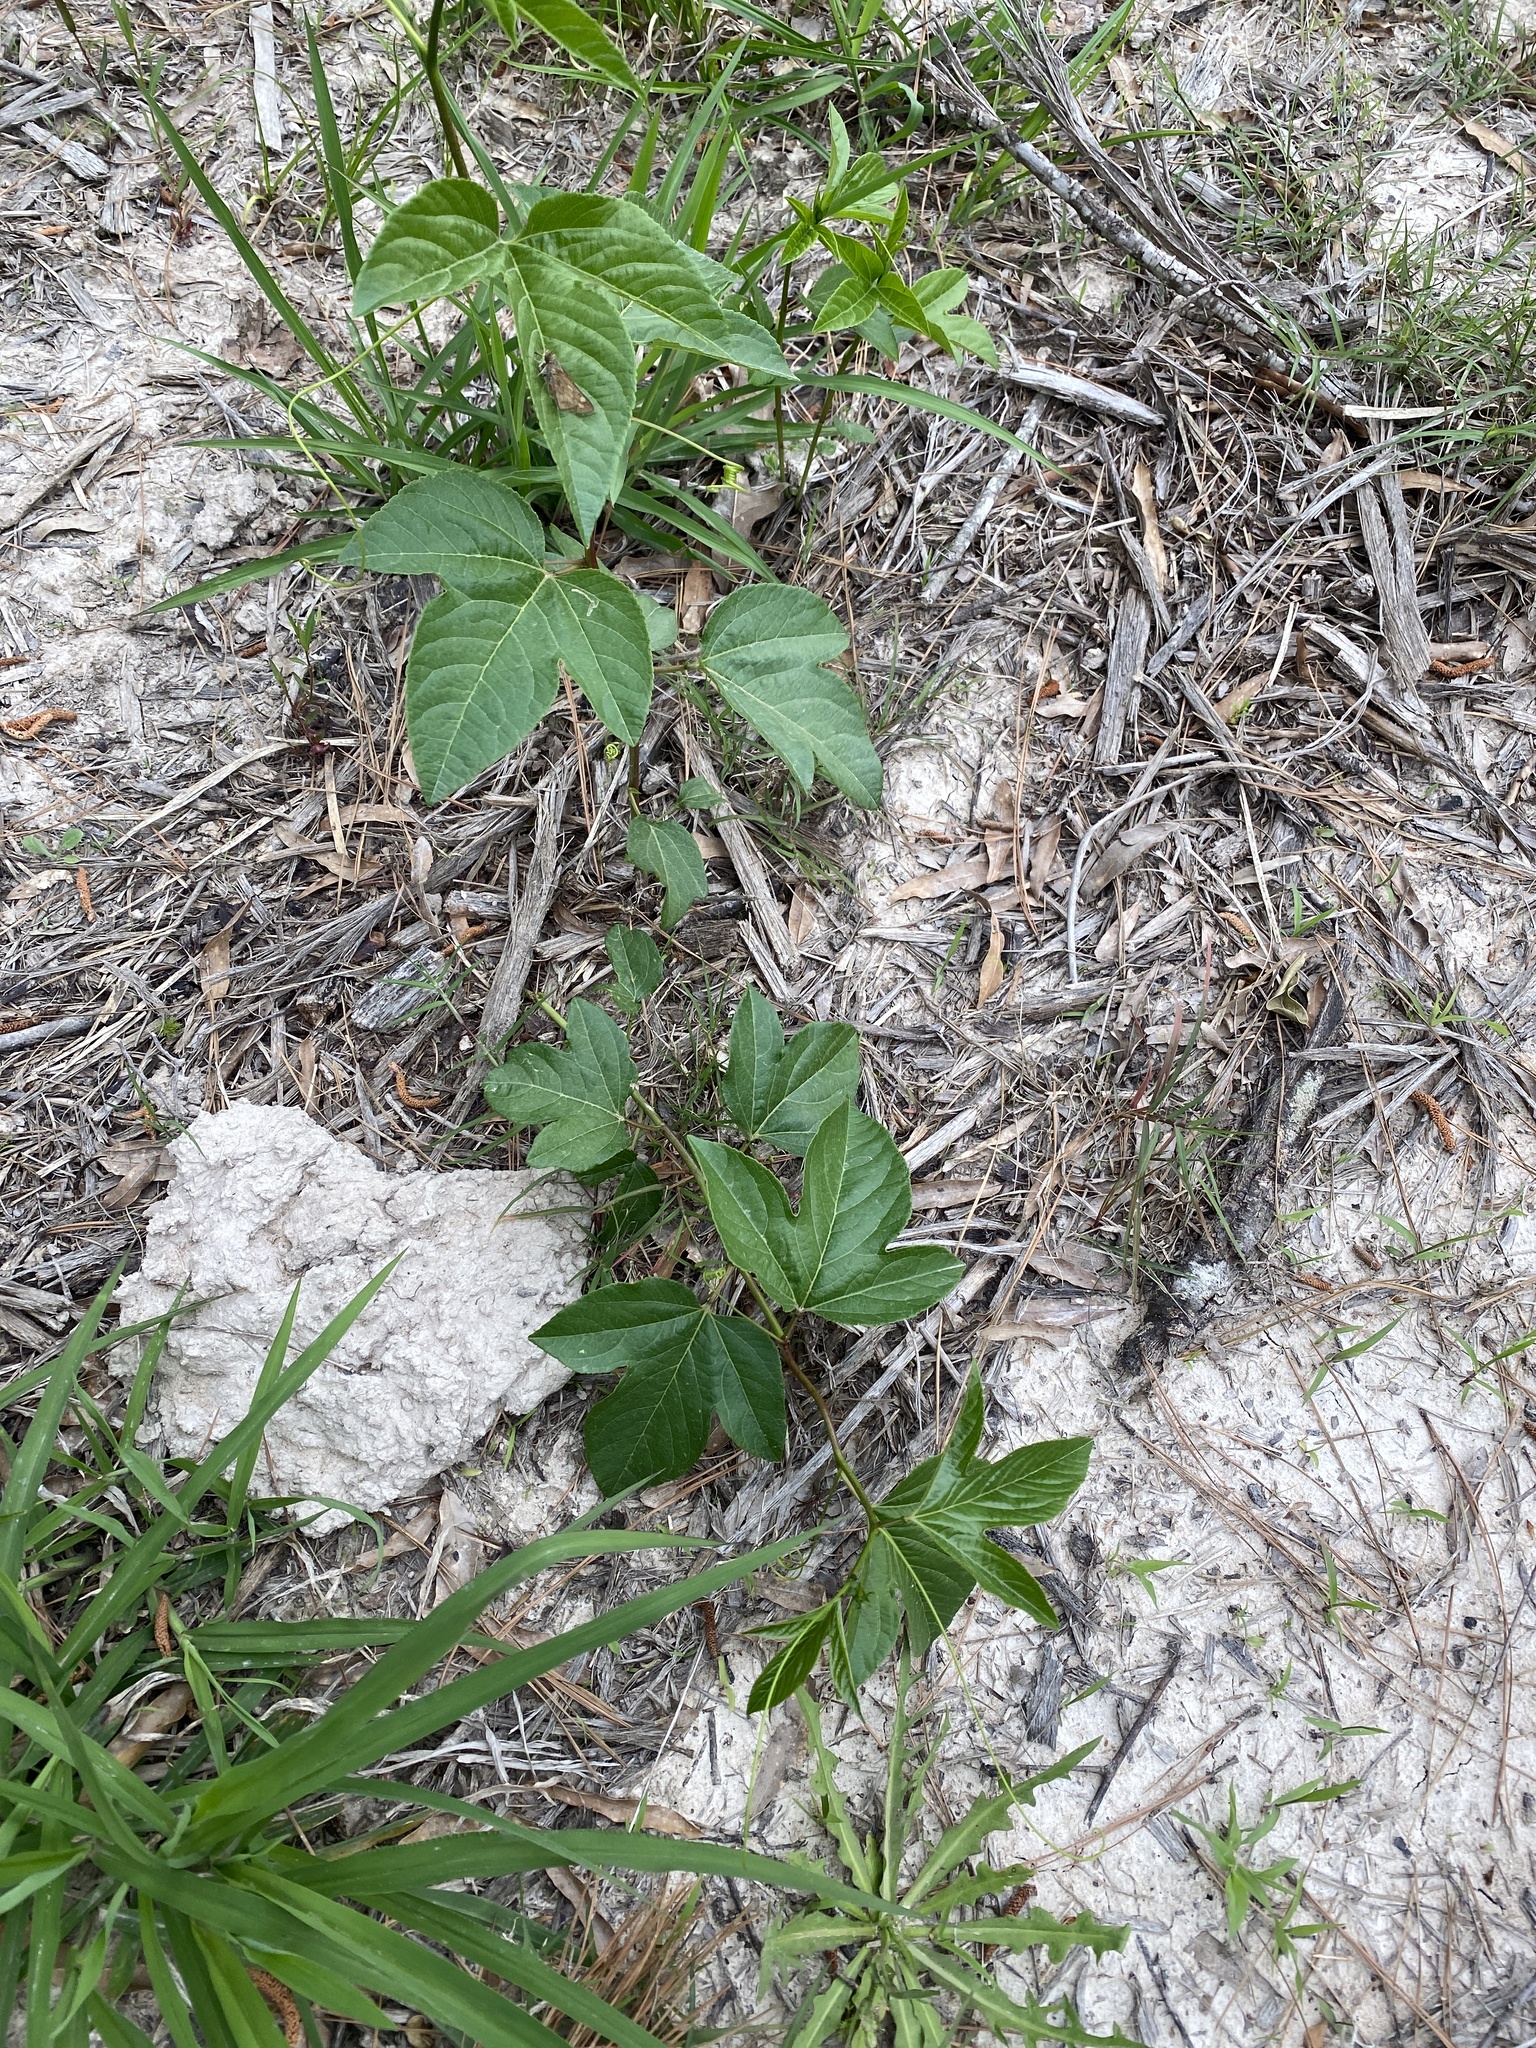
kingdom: Plantae
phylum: Tracheophyta
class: Magnoliopsida
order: Malpighiales
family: Passifloraceae
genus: Passiflora
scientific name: Passiflora incarnata
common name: Apricot-vine
